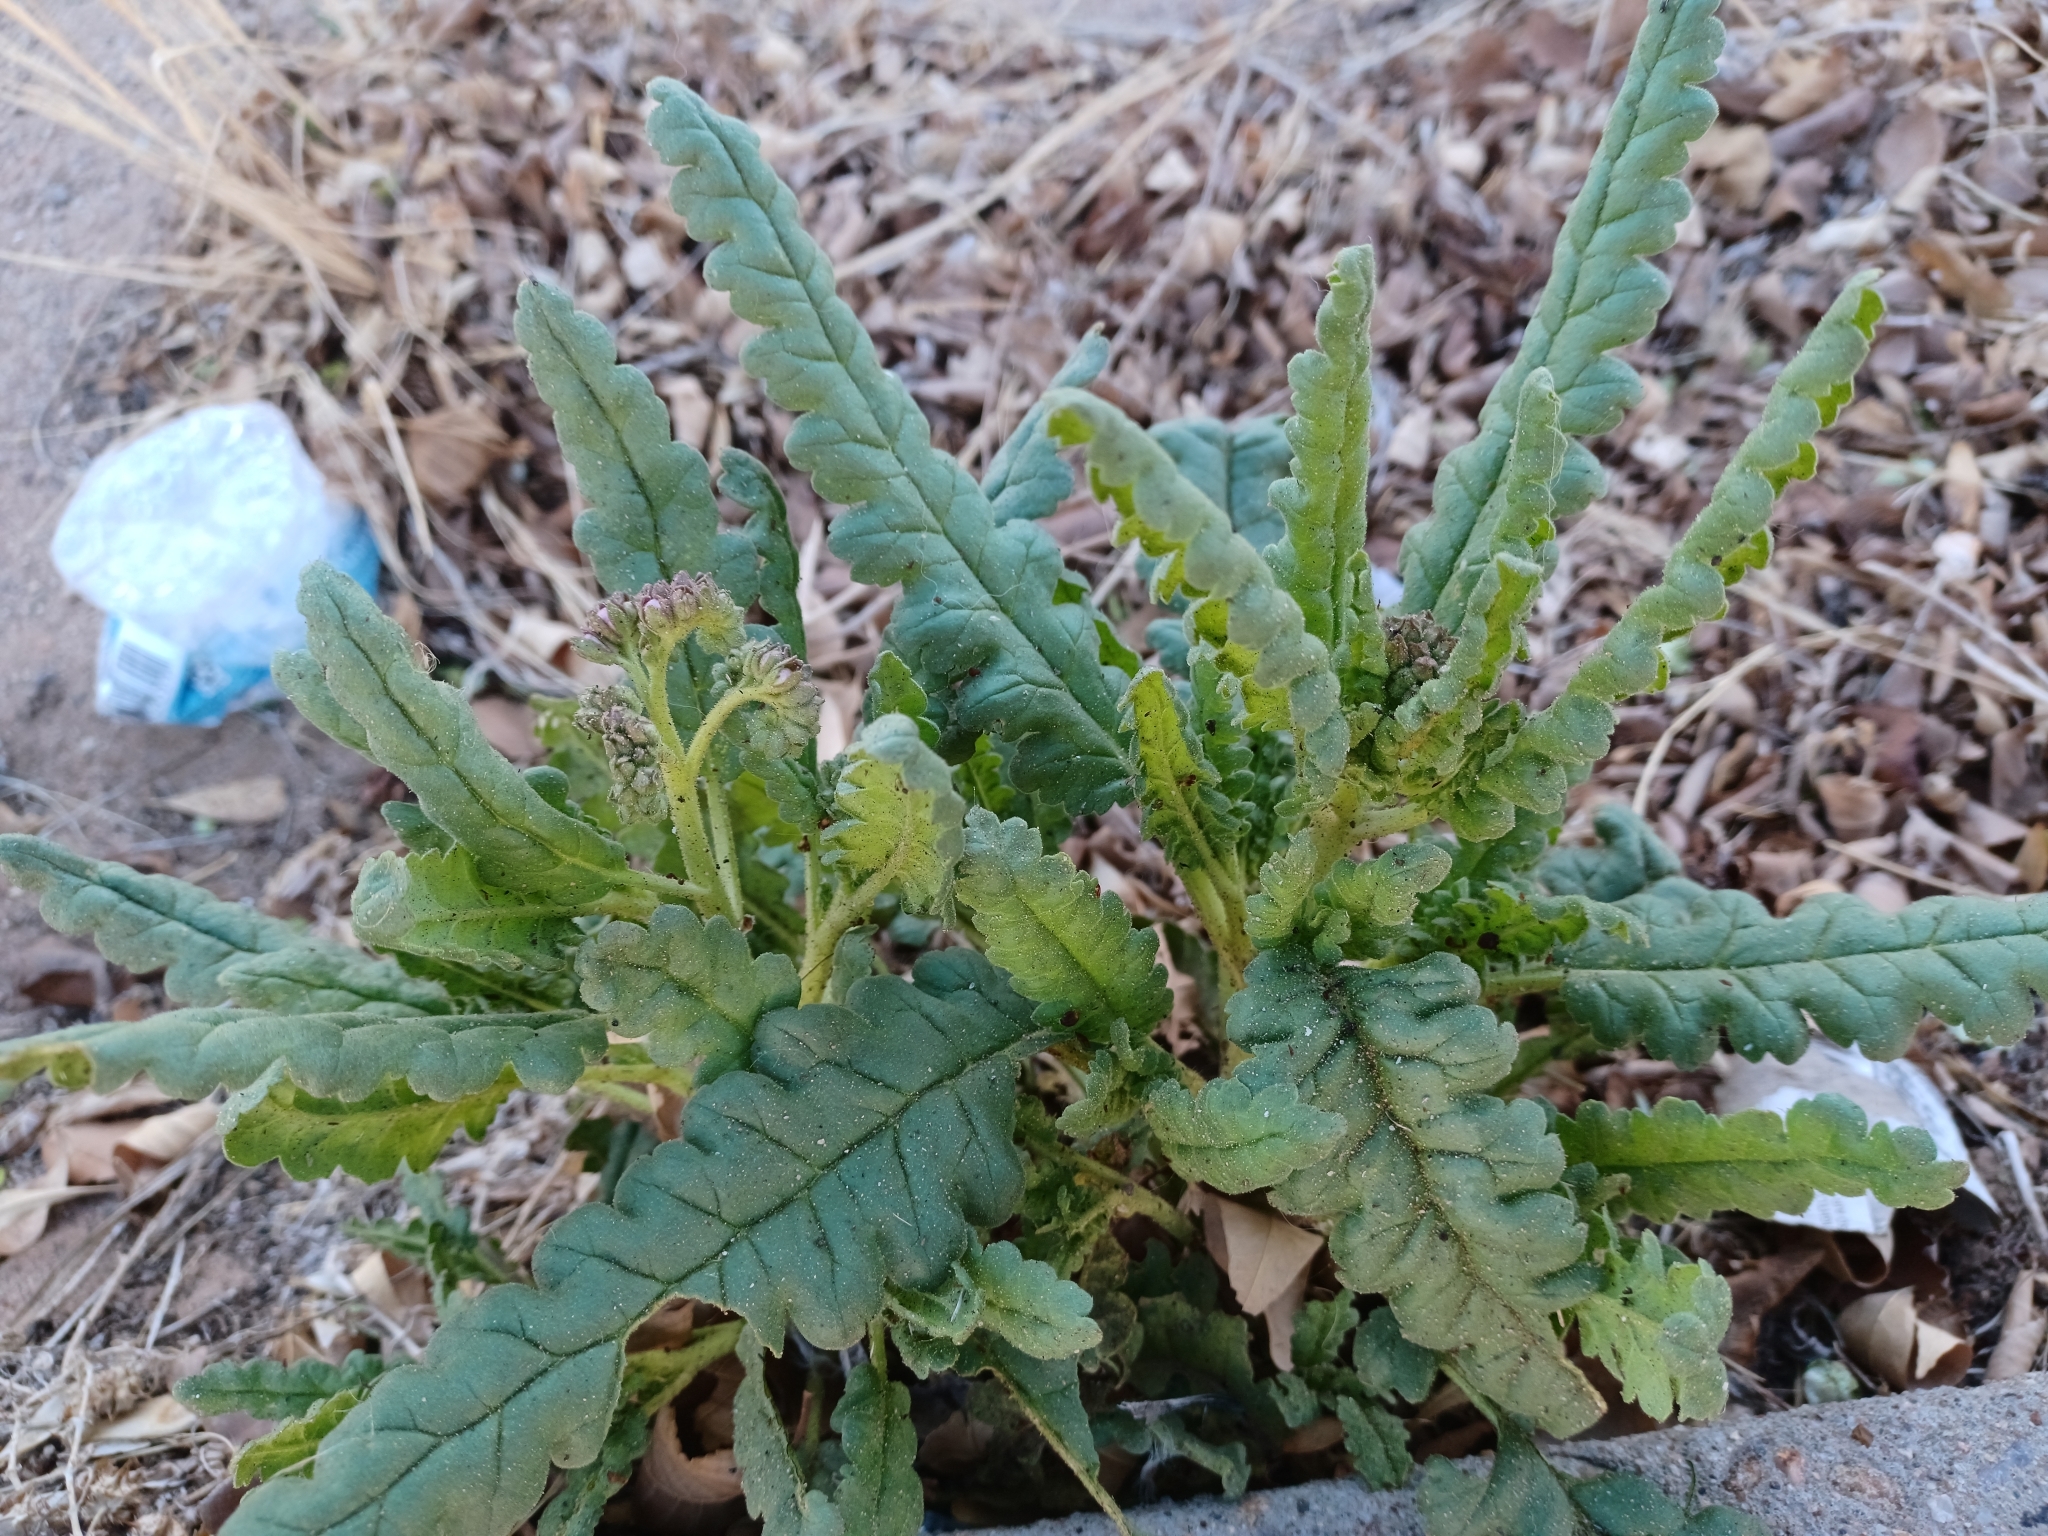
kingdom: Plantae
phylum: Tracheophyta
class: Magnoliopsida
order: Boraginales
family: Hydrophyllaceae
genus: Phacelia
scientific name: Phacelia integrifolia
